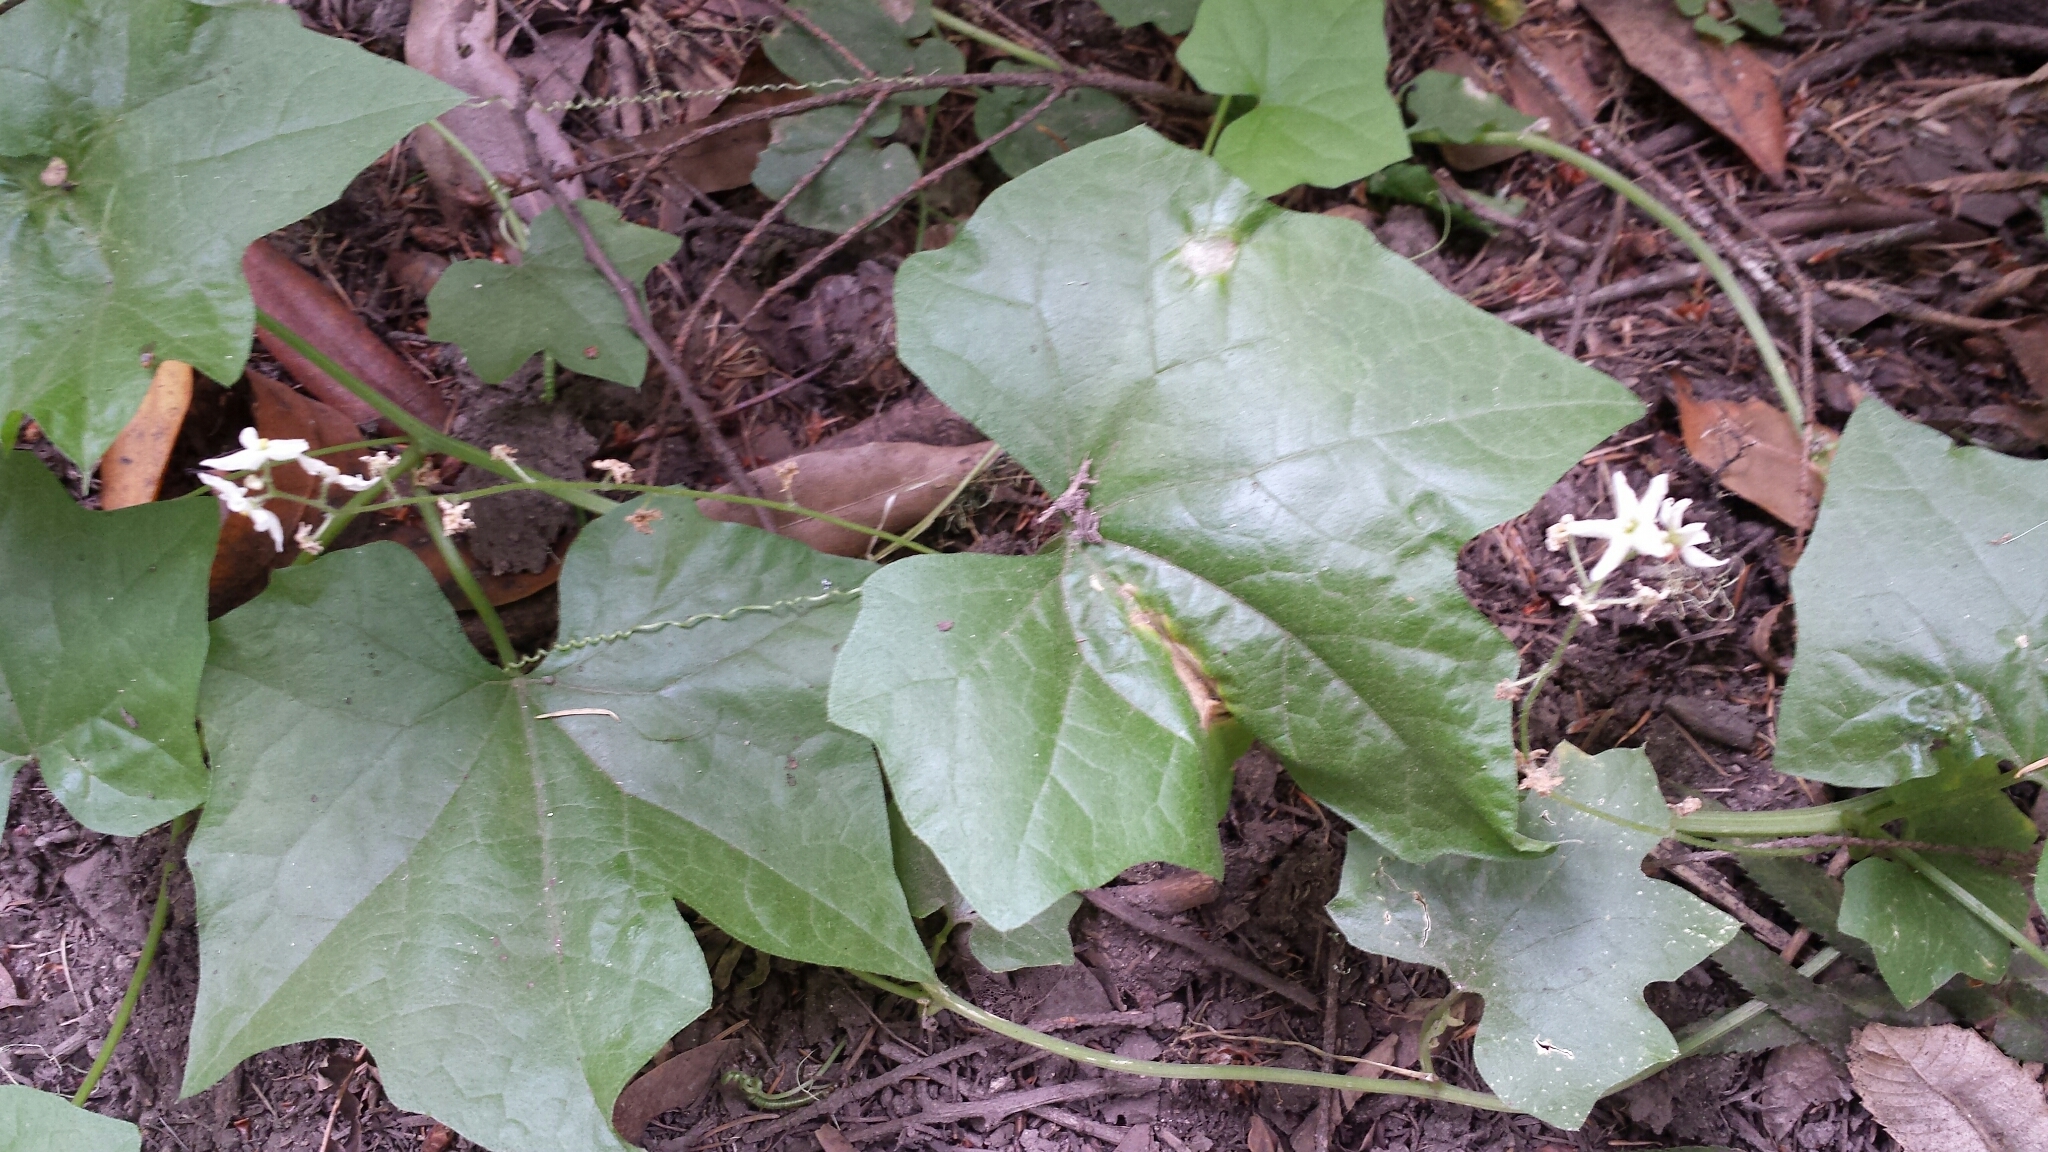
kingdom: Plantae
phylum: Tracheophyta
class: Magnoliopsida
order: Cucurbitales
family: Cucurbitaceae
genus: Marah
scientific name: Marah fabacea
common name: California manroot
